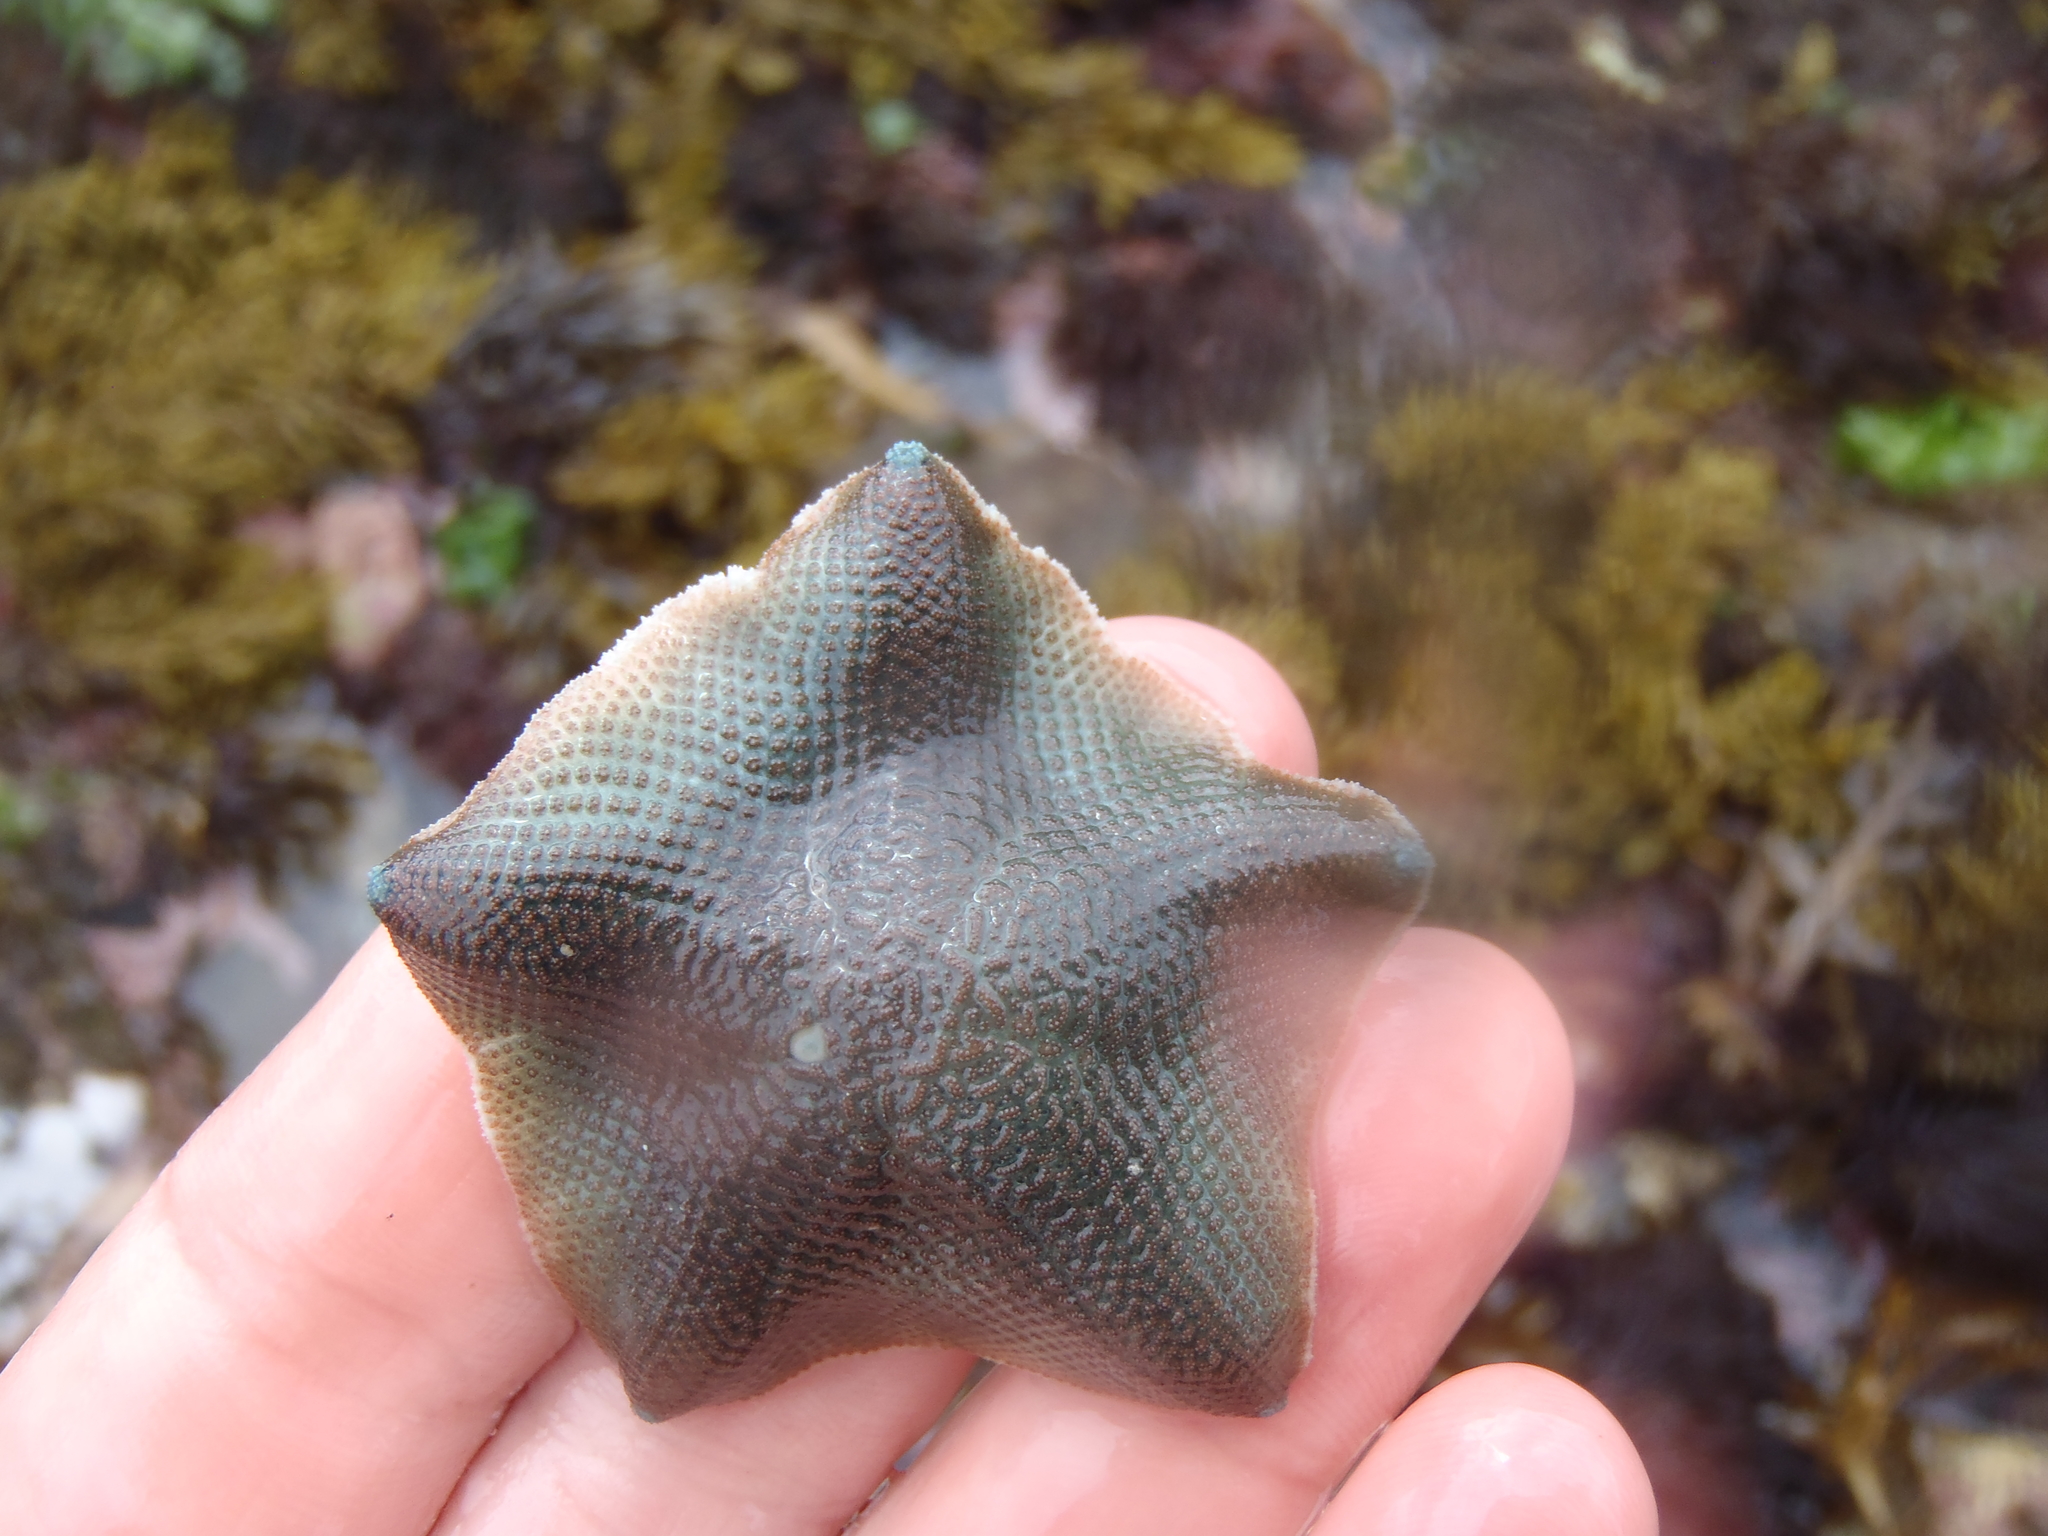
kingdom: Animalia
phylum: Echinodermata
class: Asteroidea
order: Valvatida
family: Asterinidae
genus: Patiriella
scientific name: Patiriella regularis
